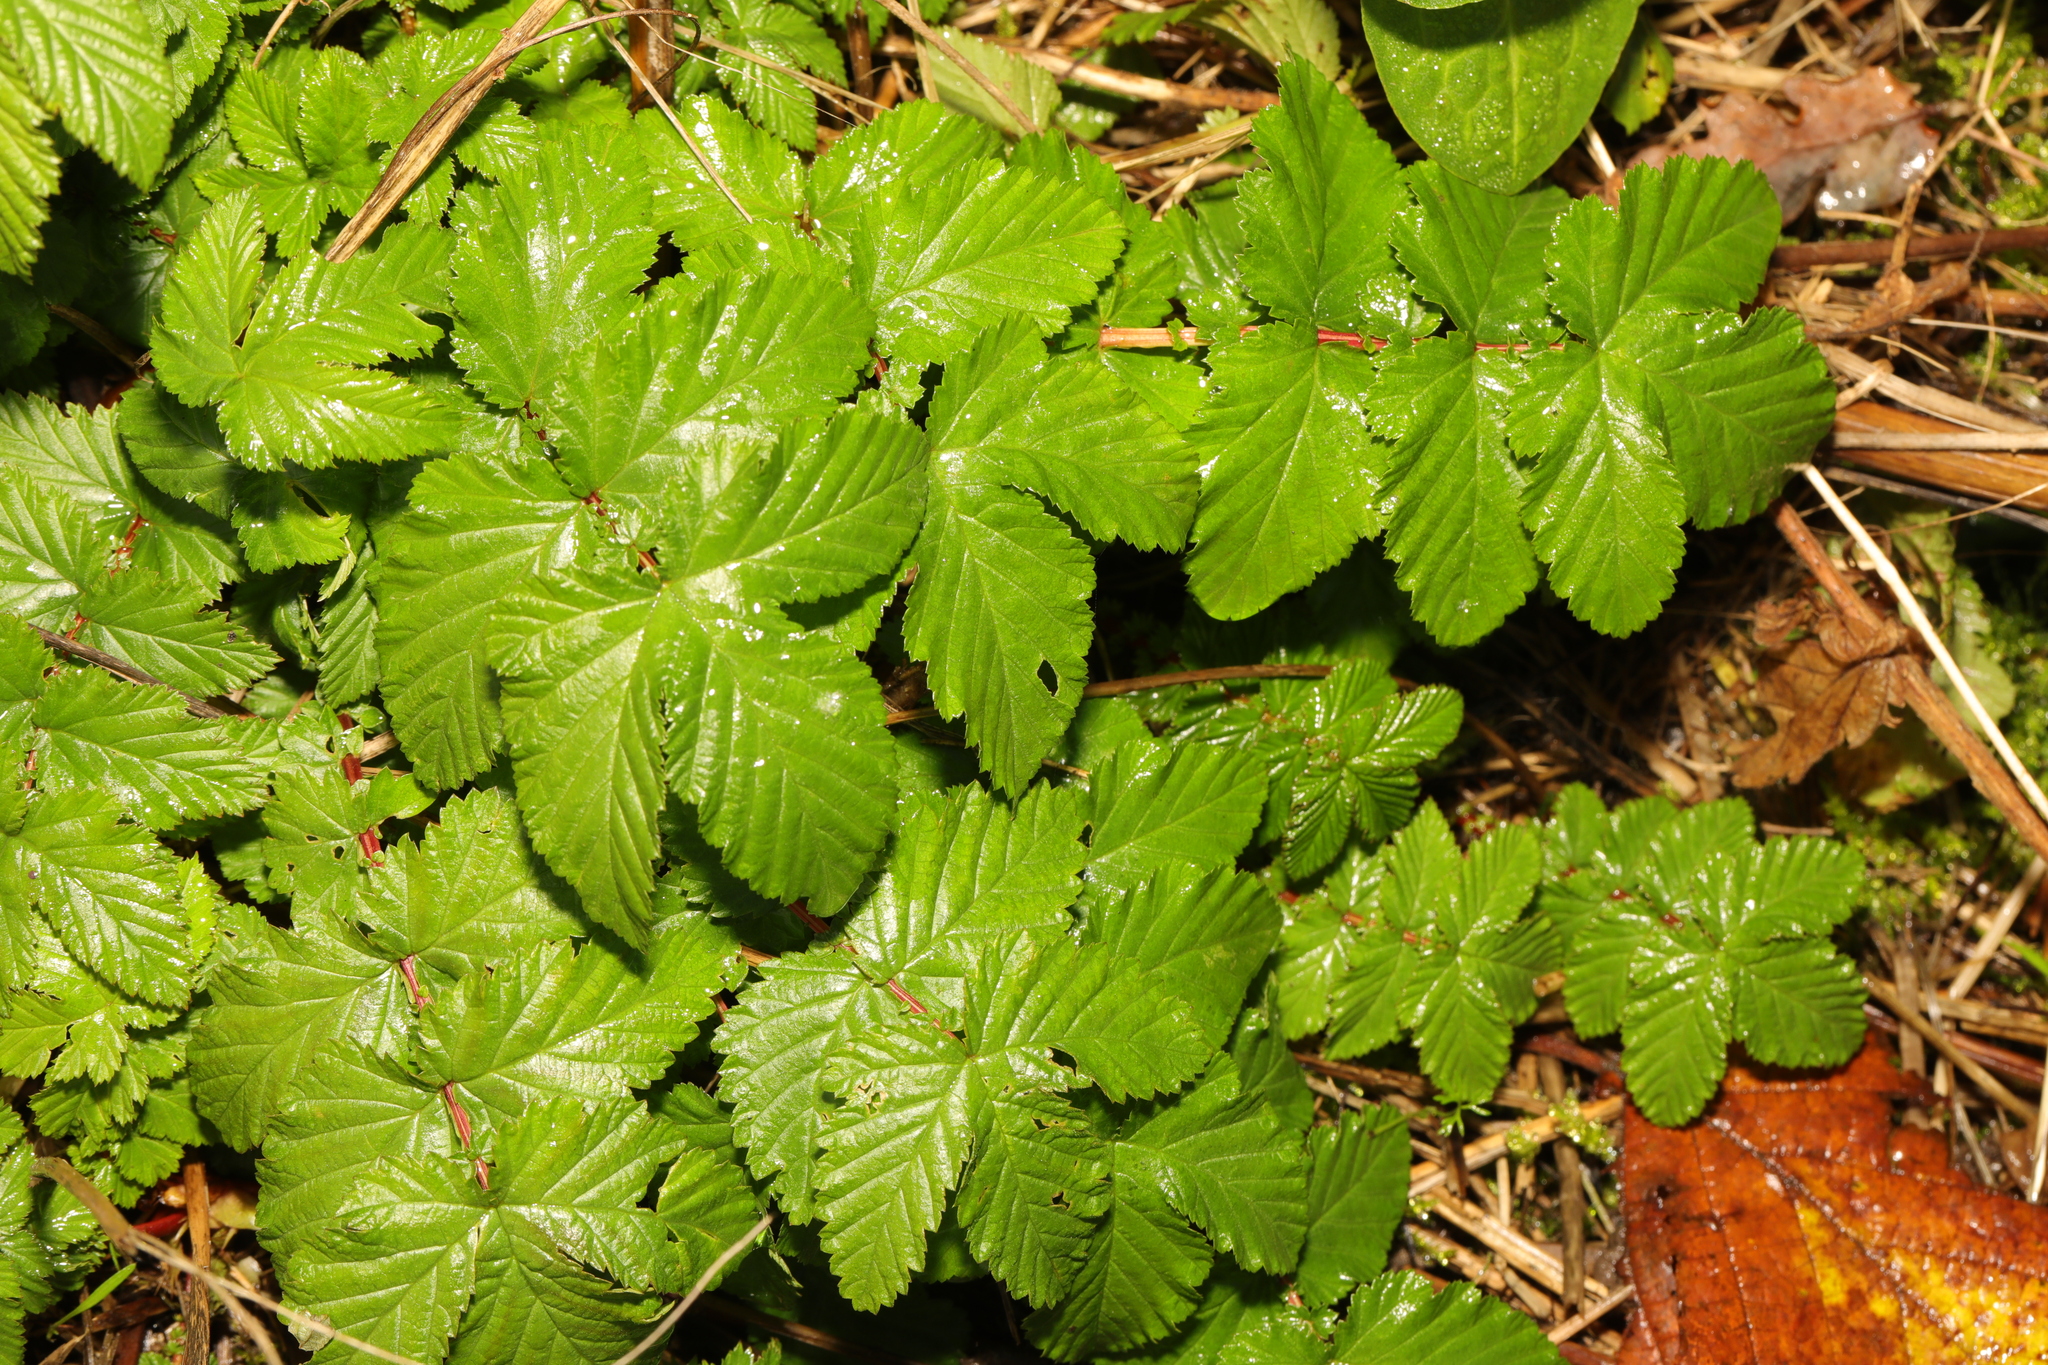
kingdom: Plantae
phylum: Tracheophyta
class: Magnoliopsida
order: Rosales
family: Rosaceae
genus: Filipendula
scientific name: Filipendula ulmaria
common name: Meadowsweet
